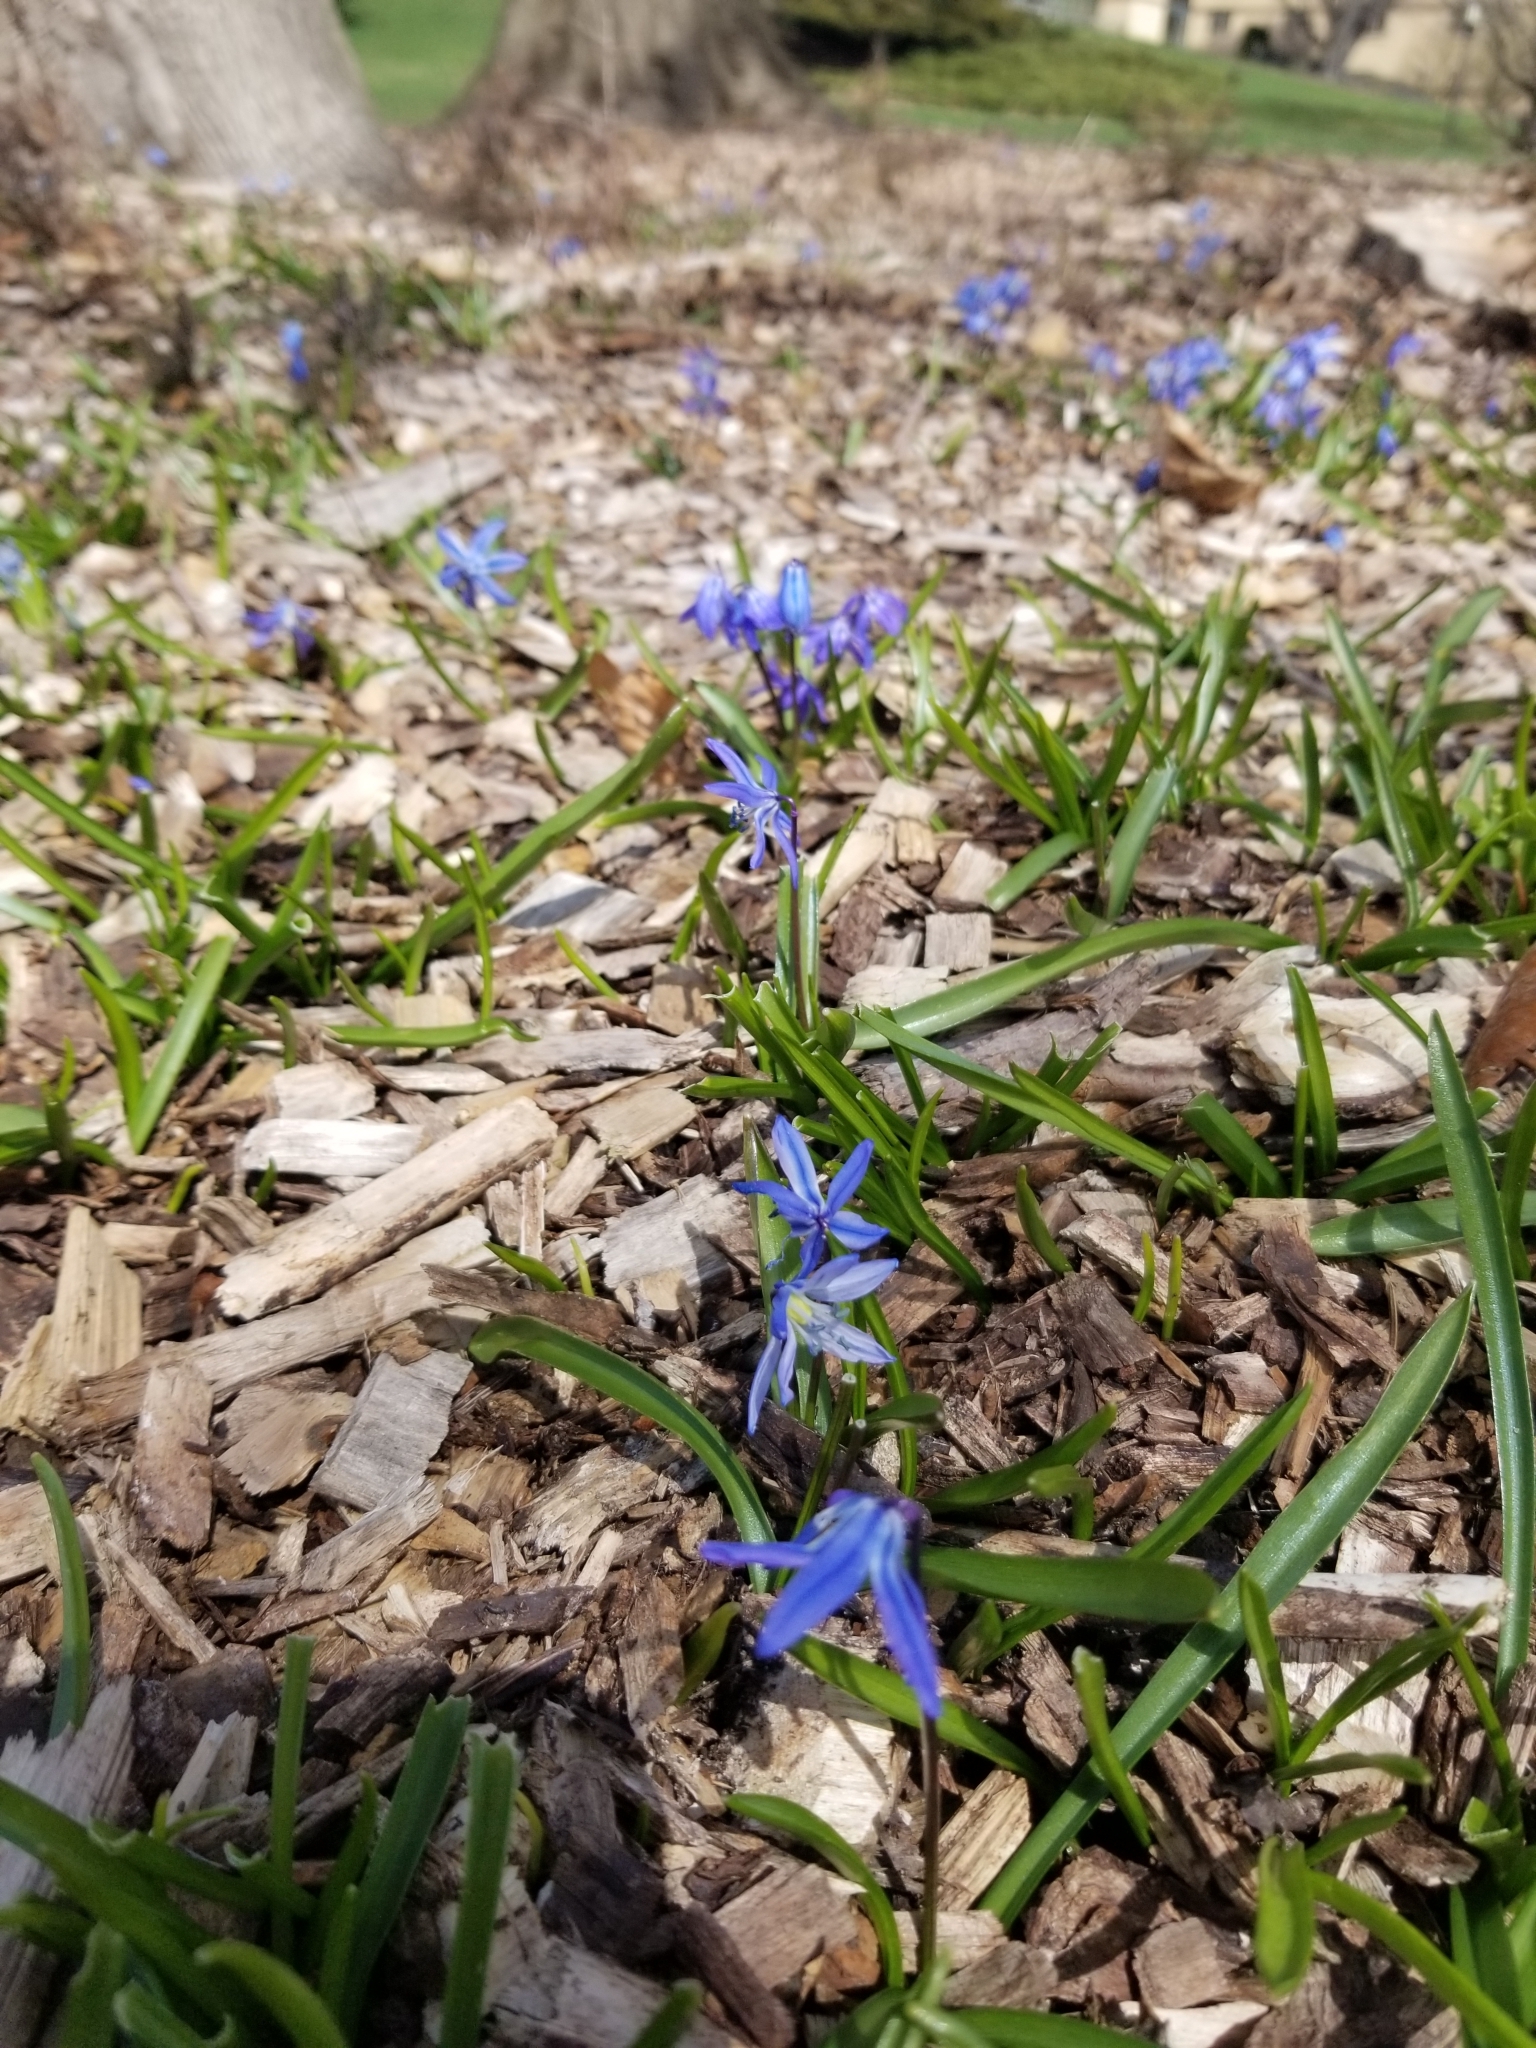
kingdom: Plantae
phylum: Tracheophyta
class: Liliopsida
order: Asparagales
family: Asparagaceae
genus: Scilla
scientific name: Scilla siberica
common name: Siberian squill
